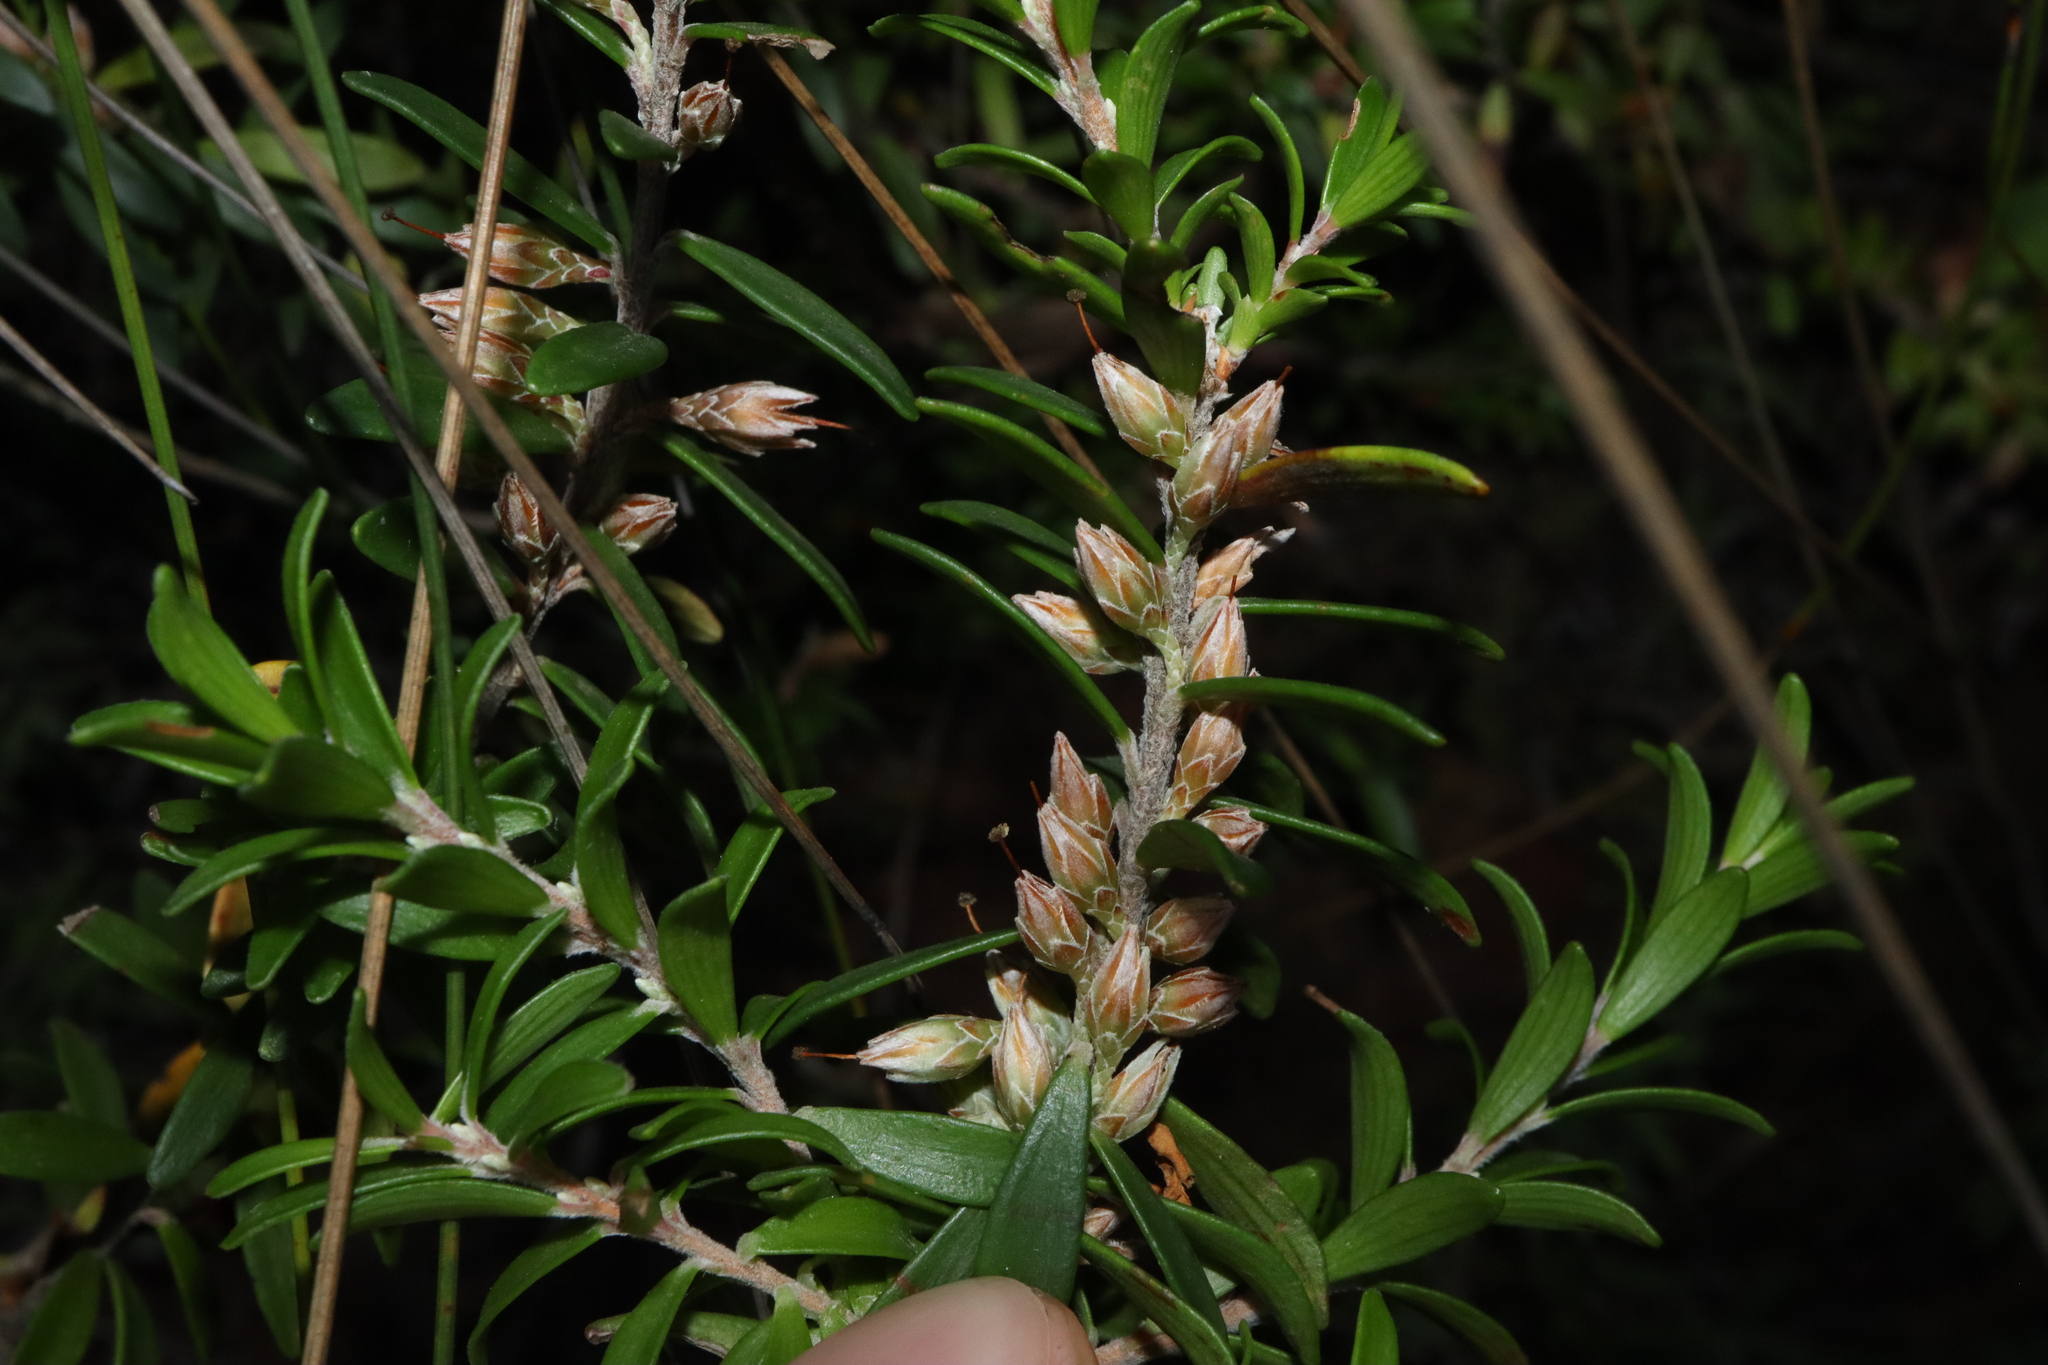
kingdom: Plantae
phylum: Tracheophyta
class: Magnoliopsida
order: Ericales
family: Ericaceae
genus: Epacris
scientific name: Epacris lithophila
